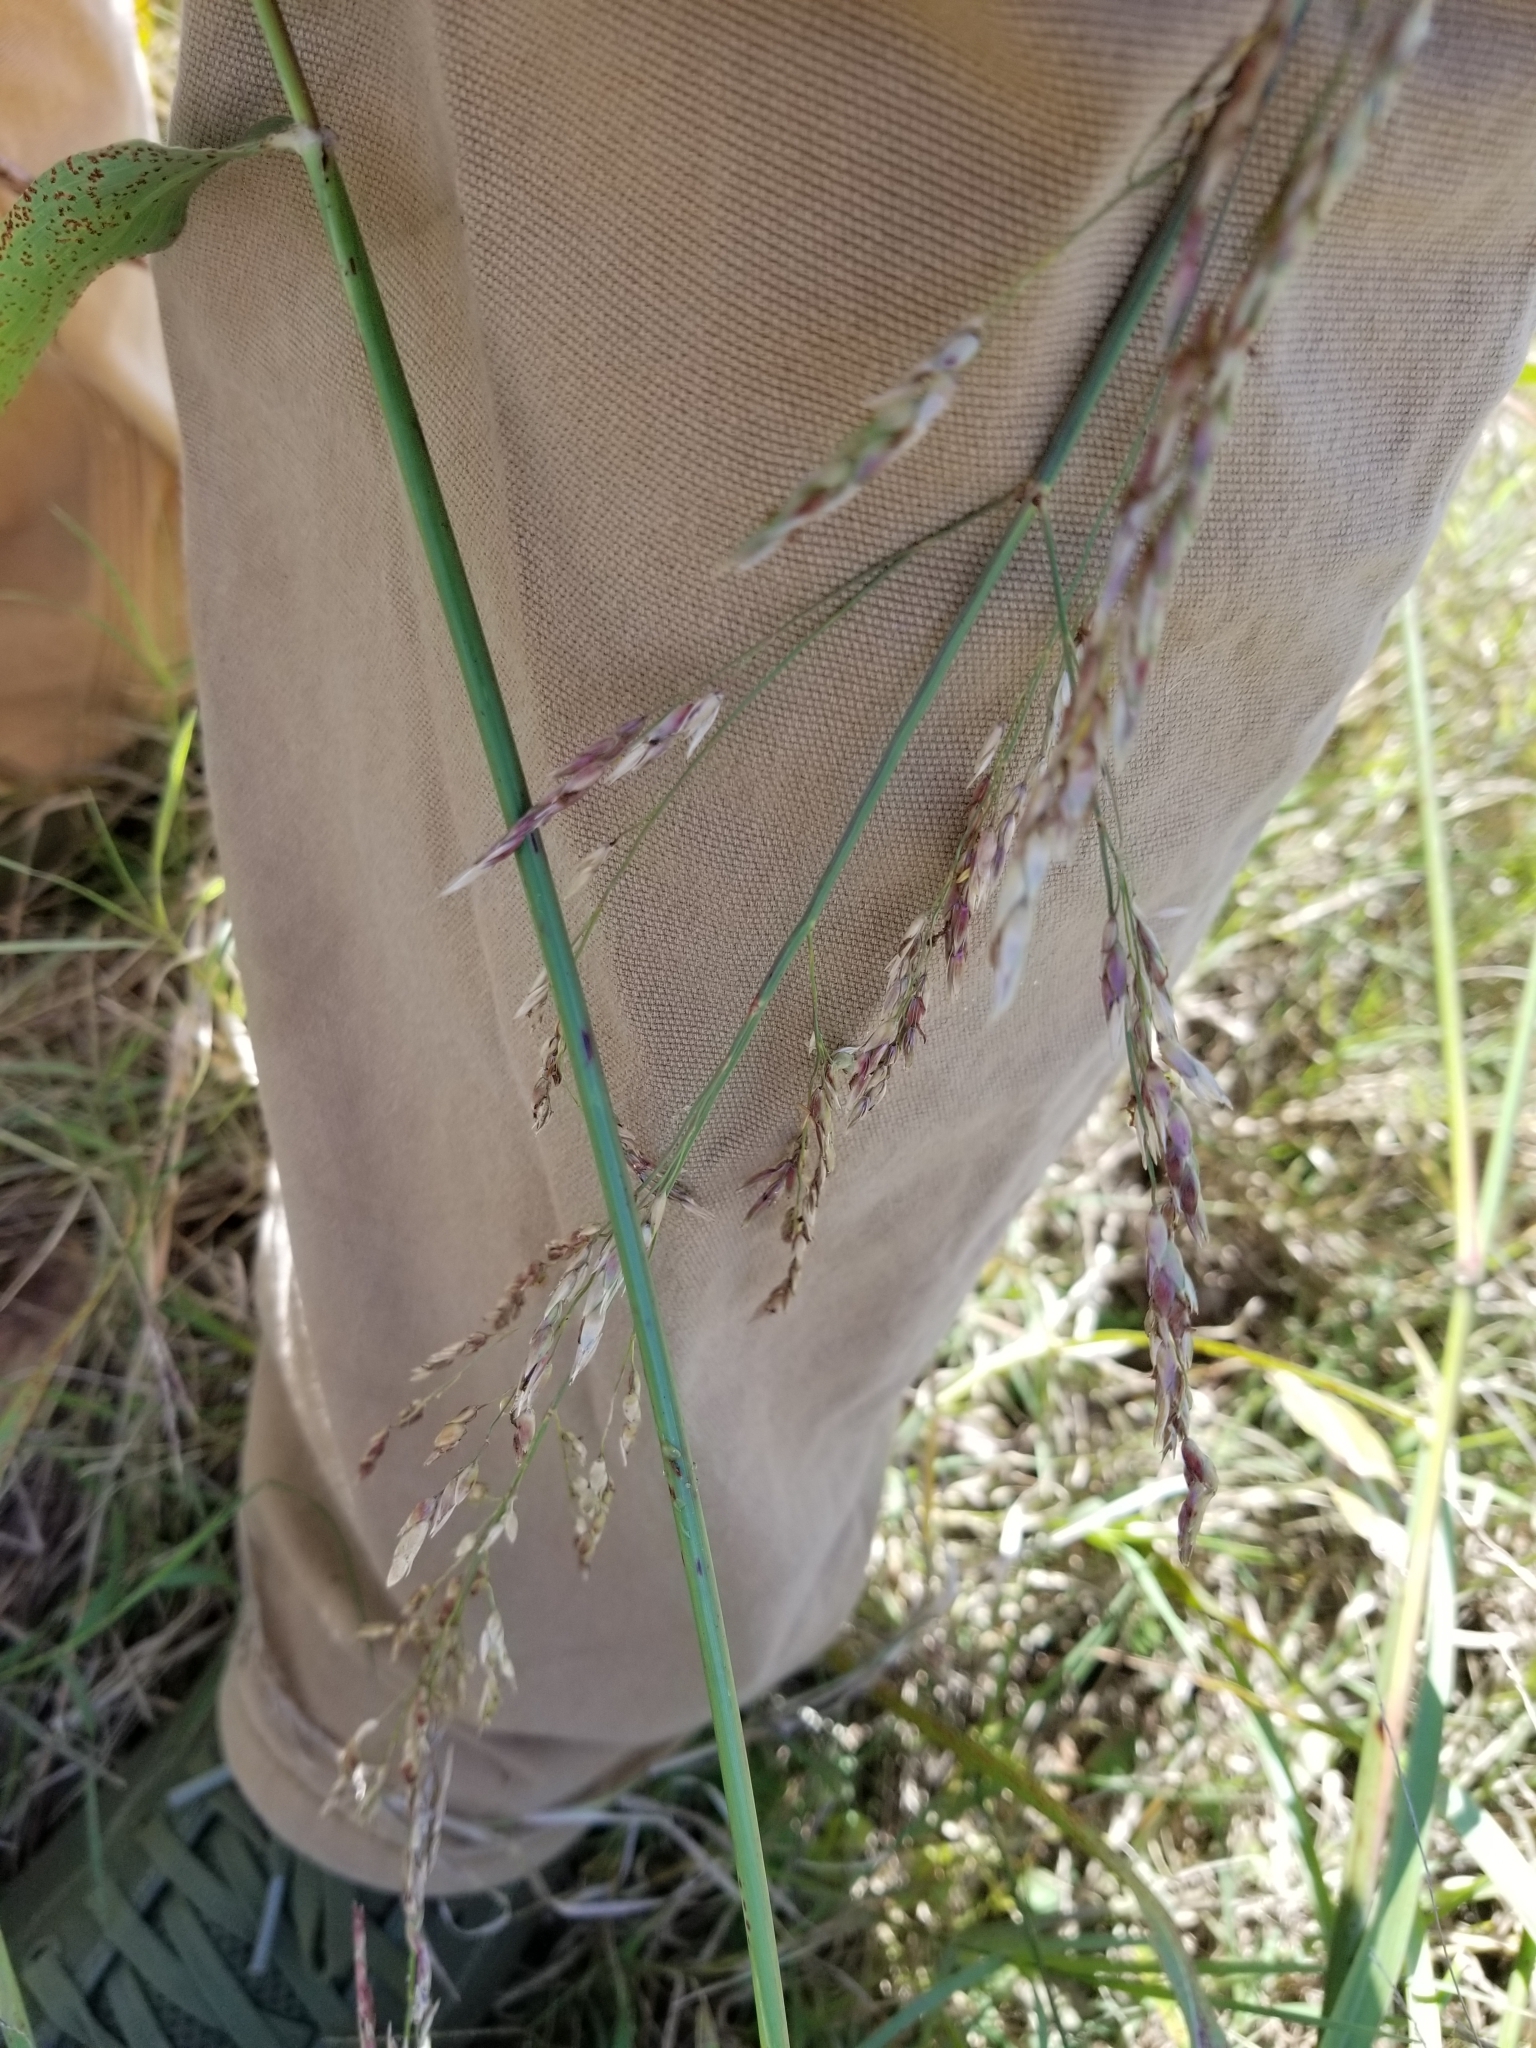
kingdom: Plantae
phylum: Tracheophyta
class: Liliopsida
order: Poales
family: Poaceae
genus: Sorghum
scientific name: Sorghum halepense
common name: Johnson-grass
